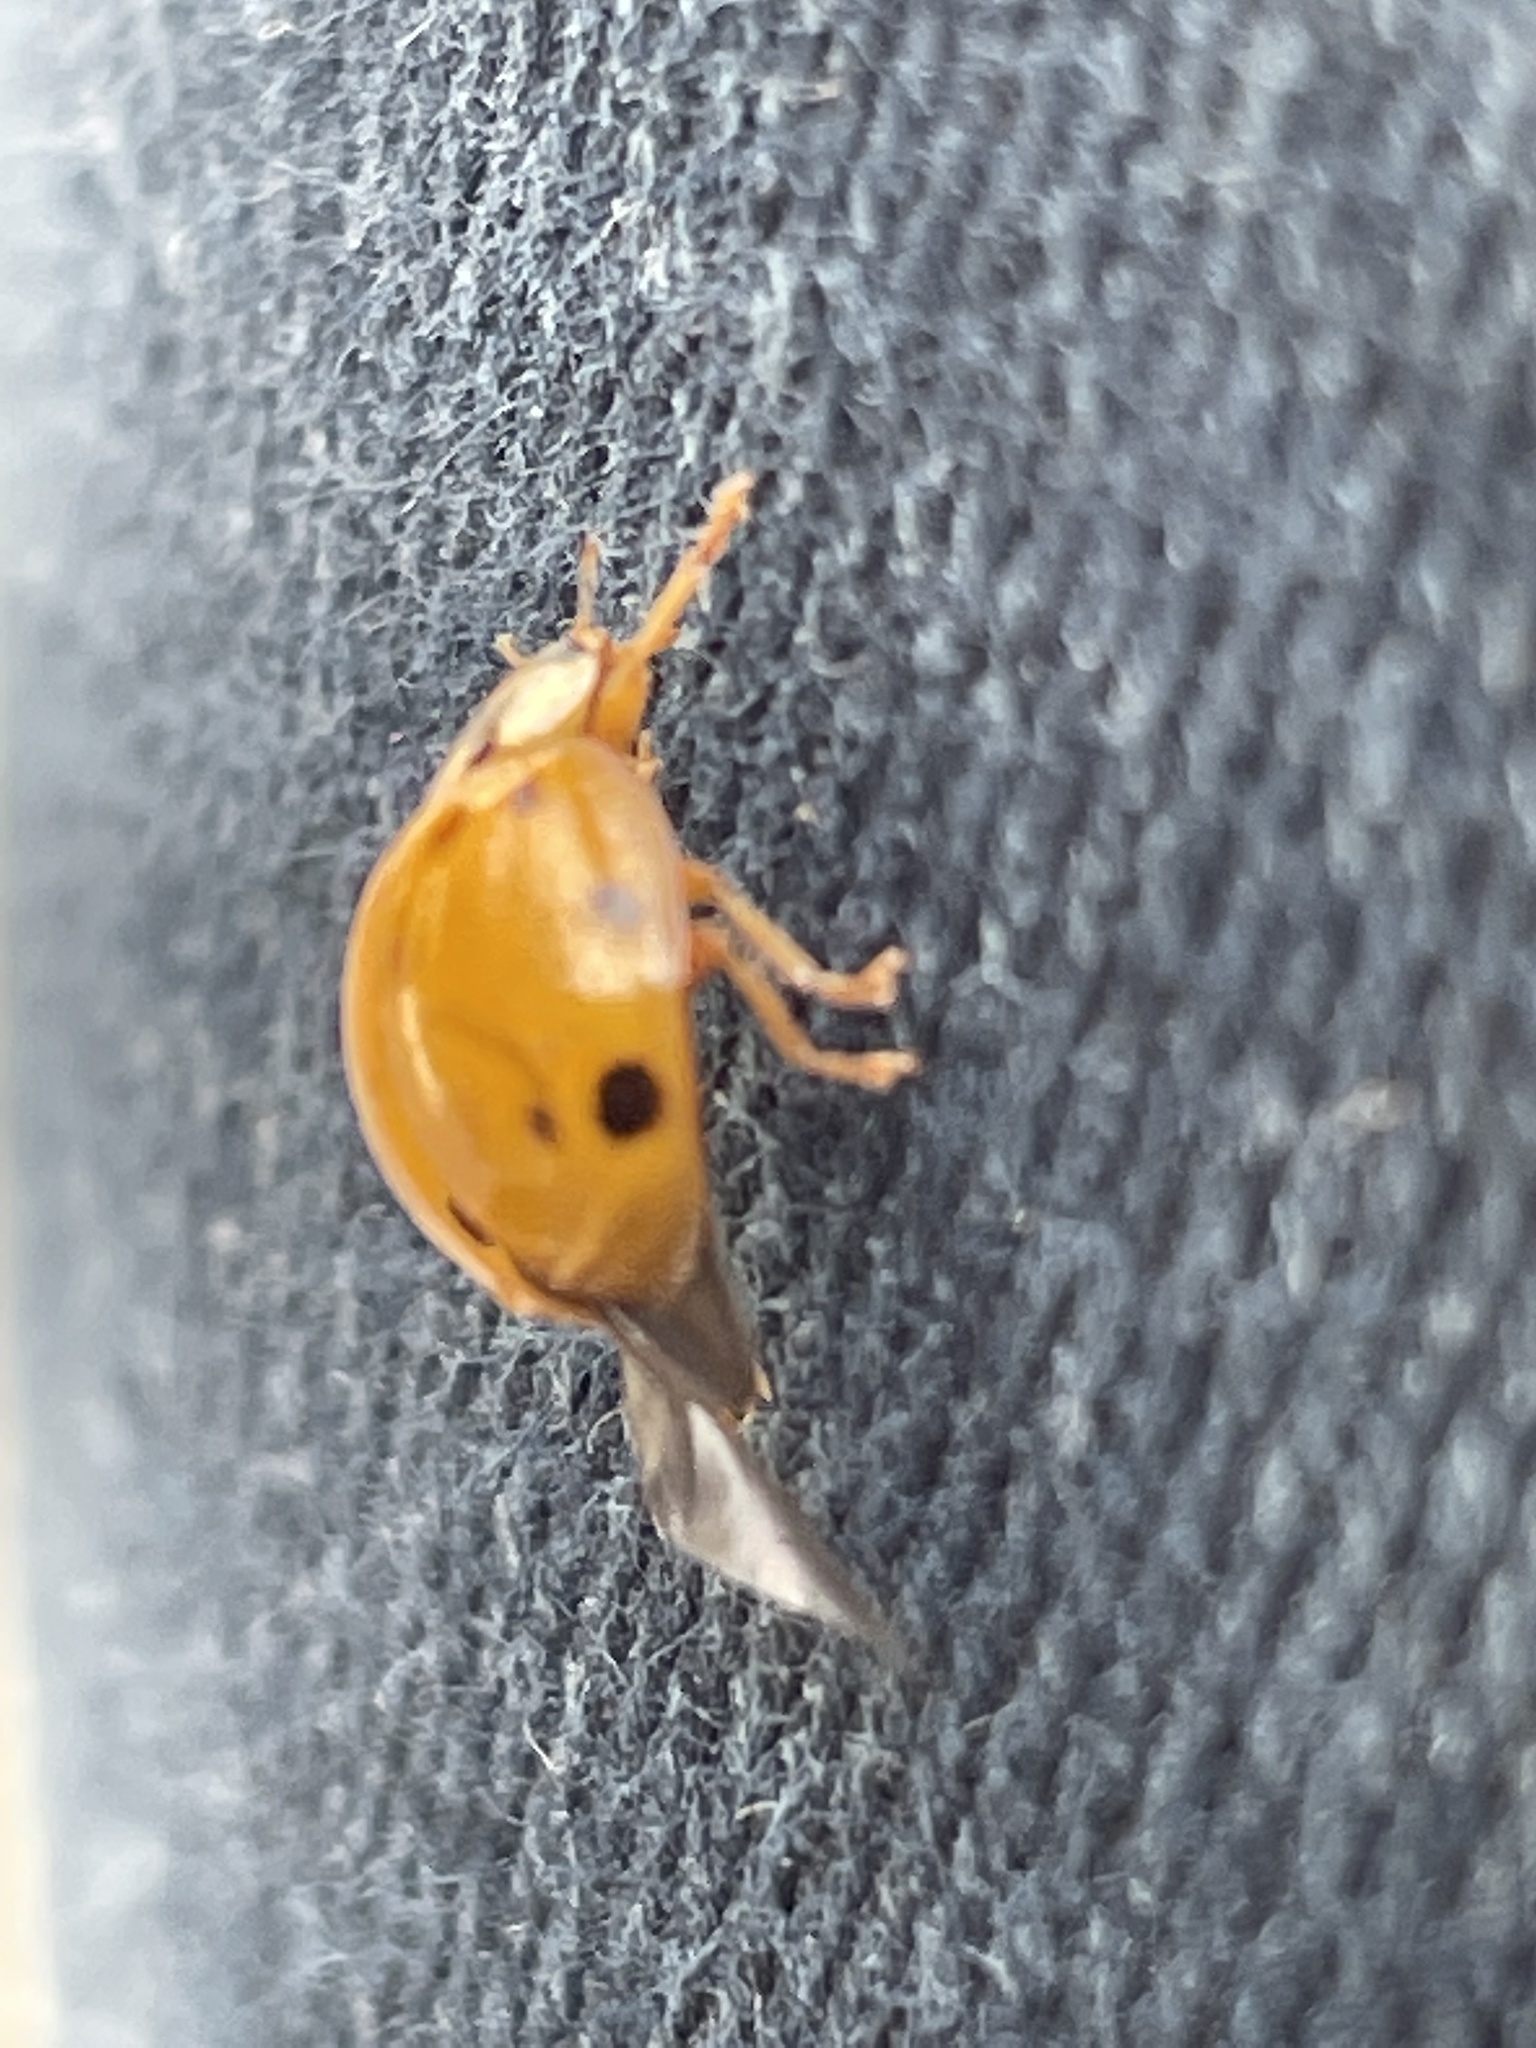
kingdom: Animalia
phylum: Arthropoda
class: Insecta
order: Coleoptera
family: Coccinellidae
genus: Harmonia
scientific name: Harmonia axyridis
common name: Harlequin ladybird
